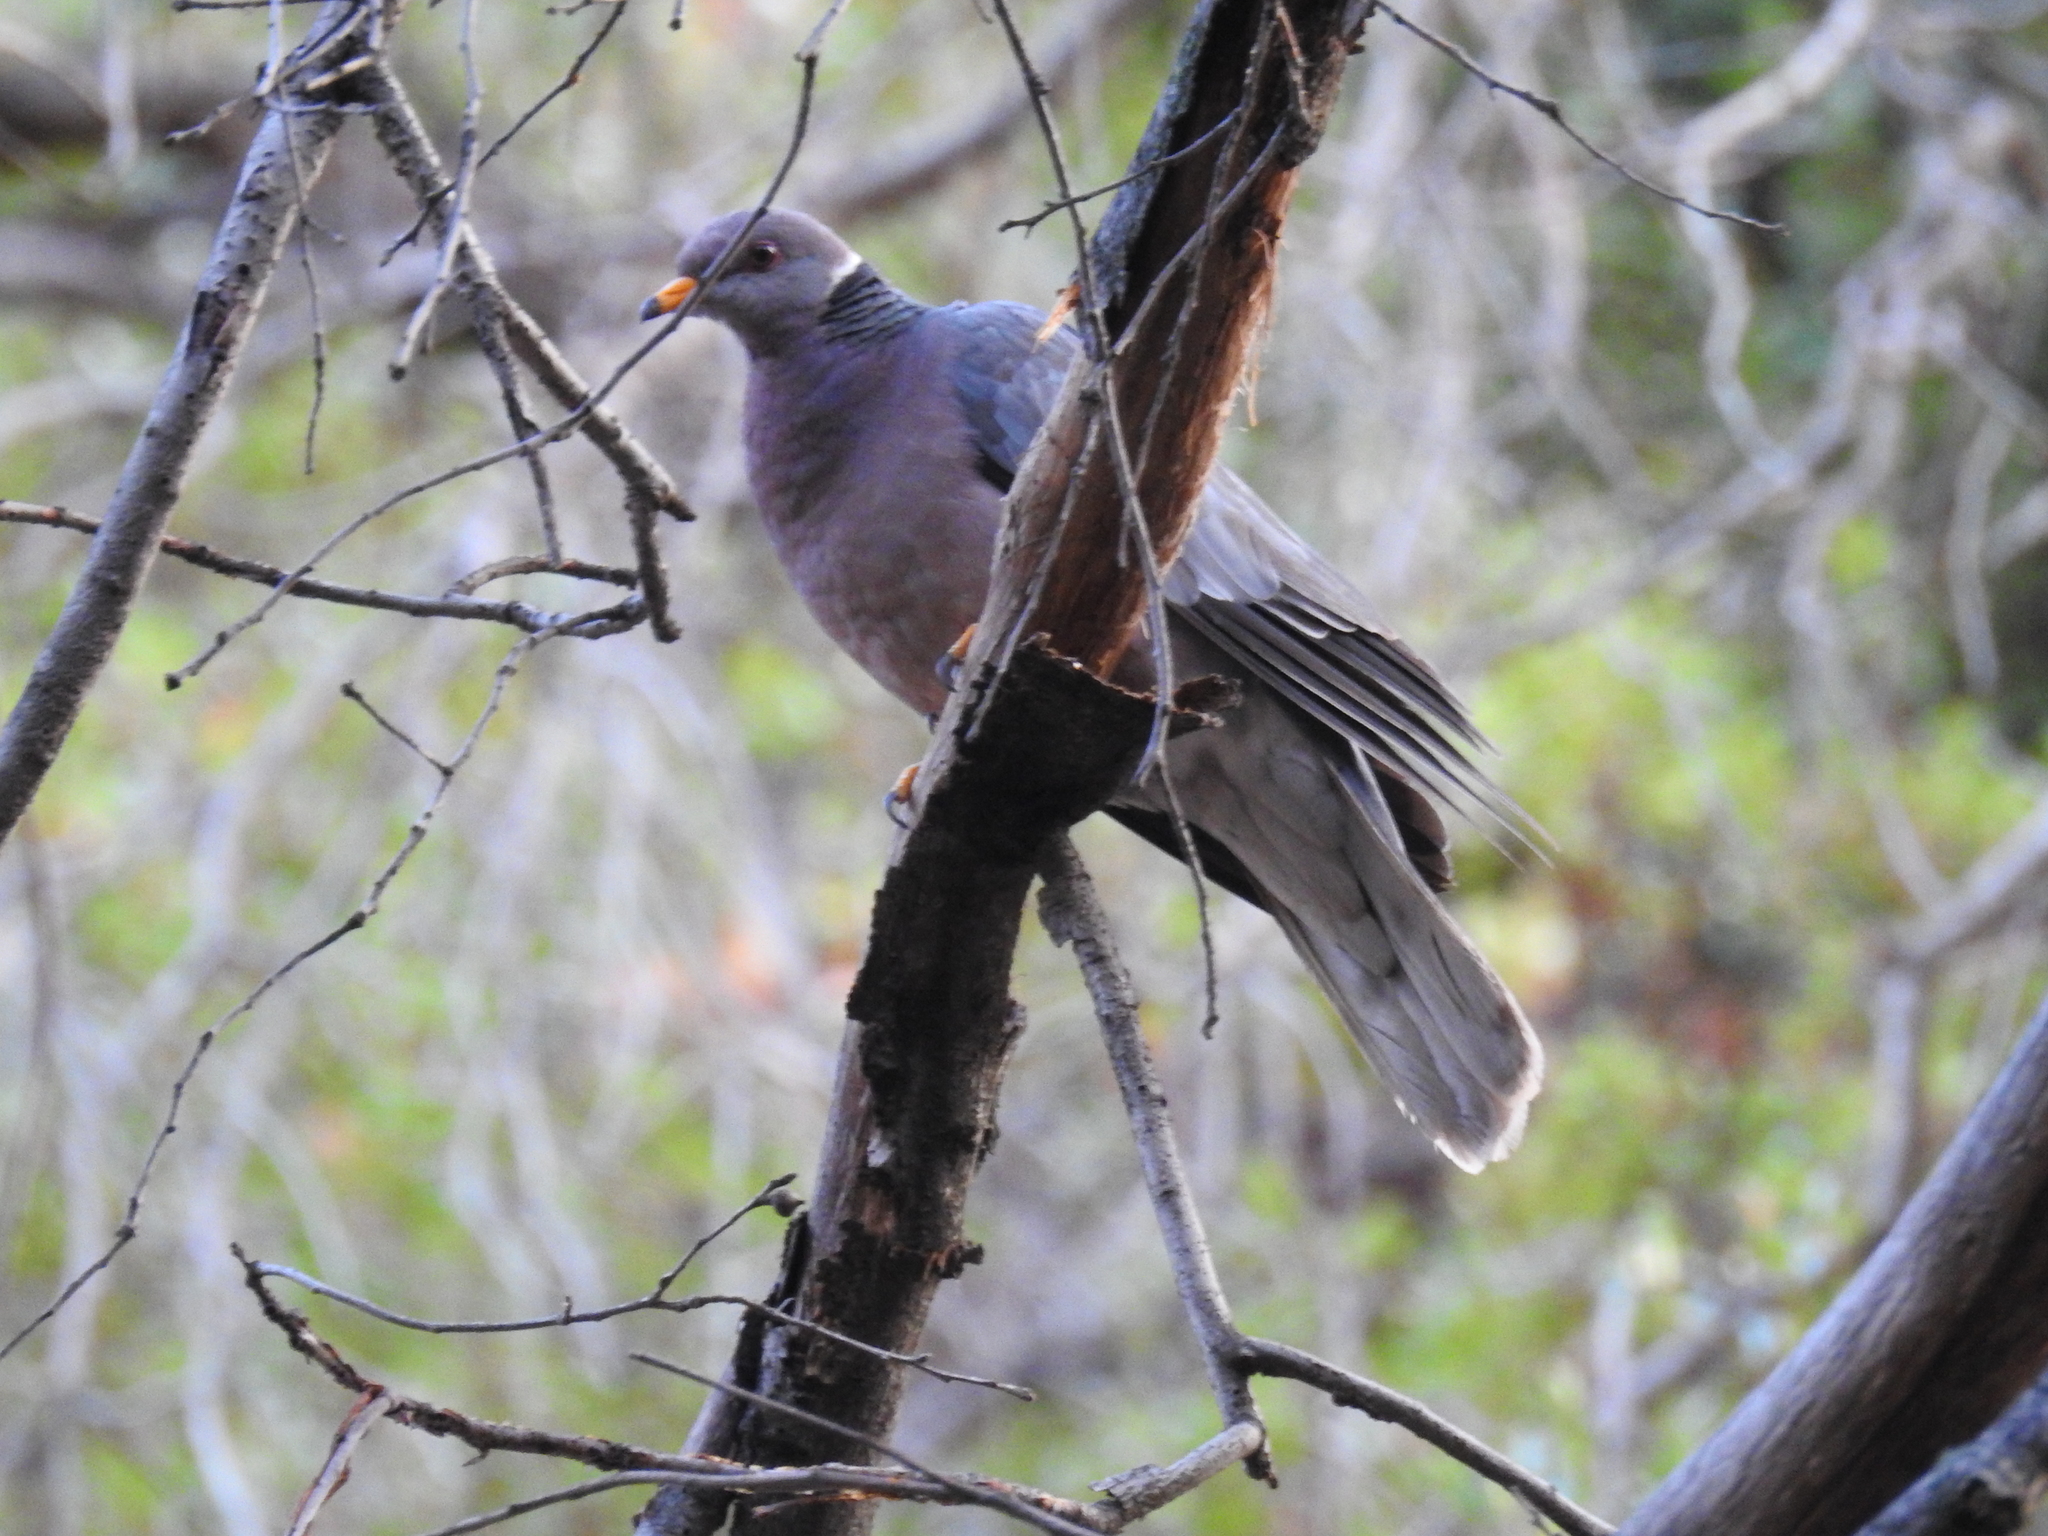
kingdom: Animalia
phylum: Chordata
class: Aves
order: Columbiformes
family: Columbidae
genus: Patagioenas
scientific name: Patagioenas fasciata
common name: Band-tailed pigeon
